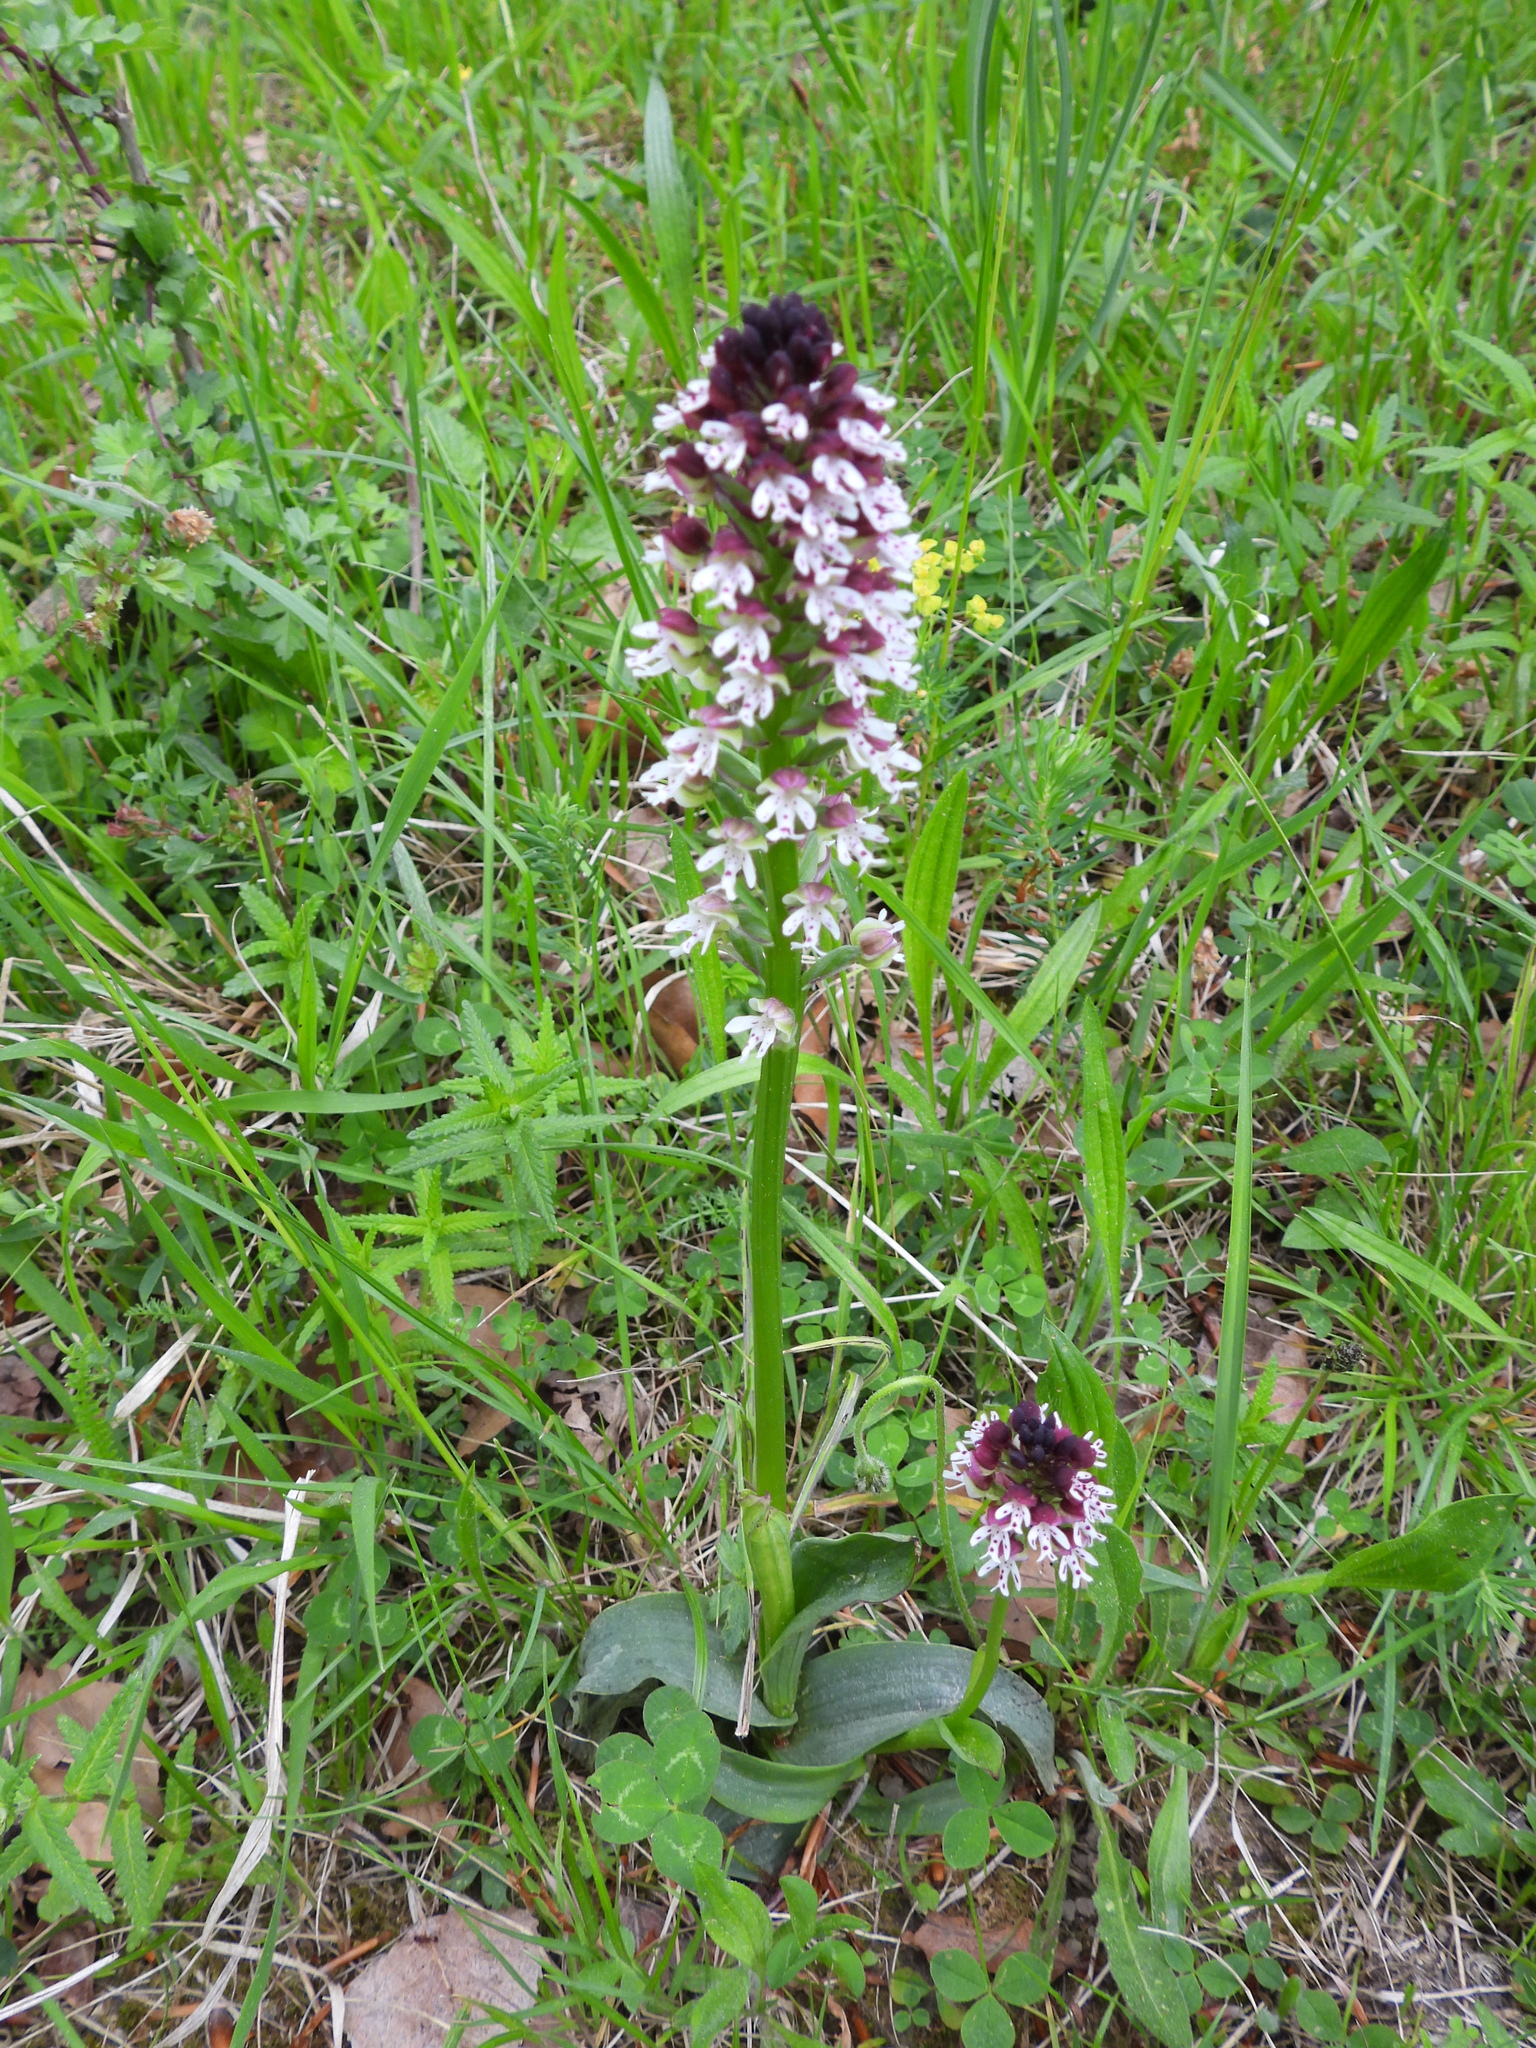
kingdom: Plantae
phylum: Tracheophyta
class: Liliopsida
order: Asparagales
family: Orchidaceae
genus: Neotinea
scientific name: Neotinea ustulata
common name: Burnt orchid
